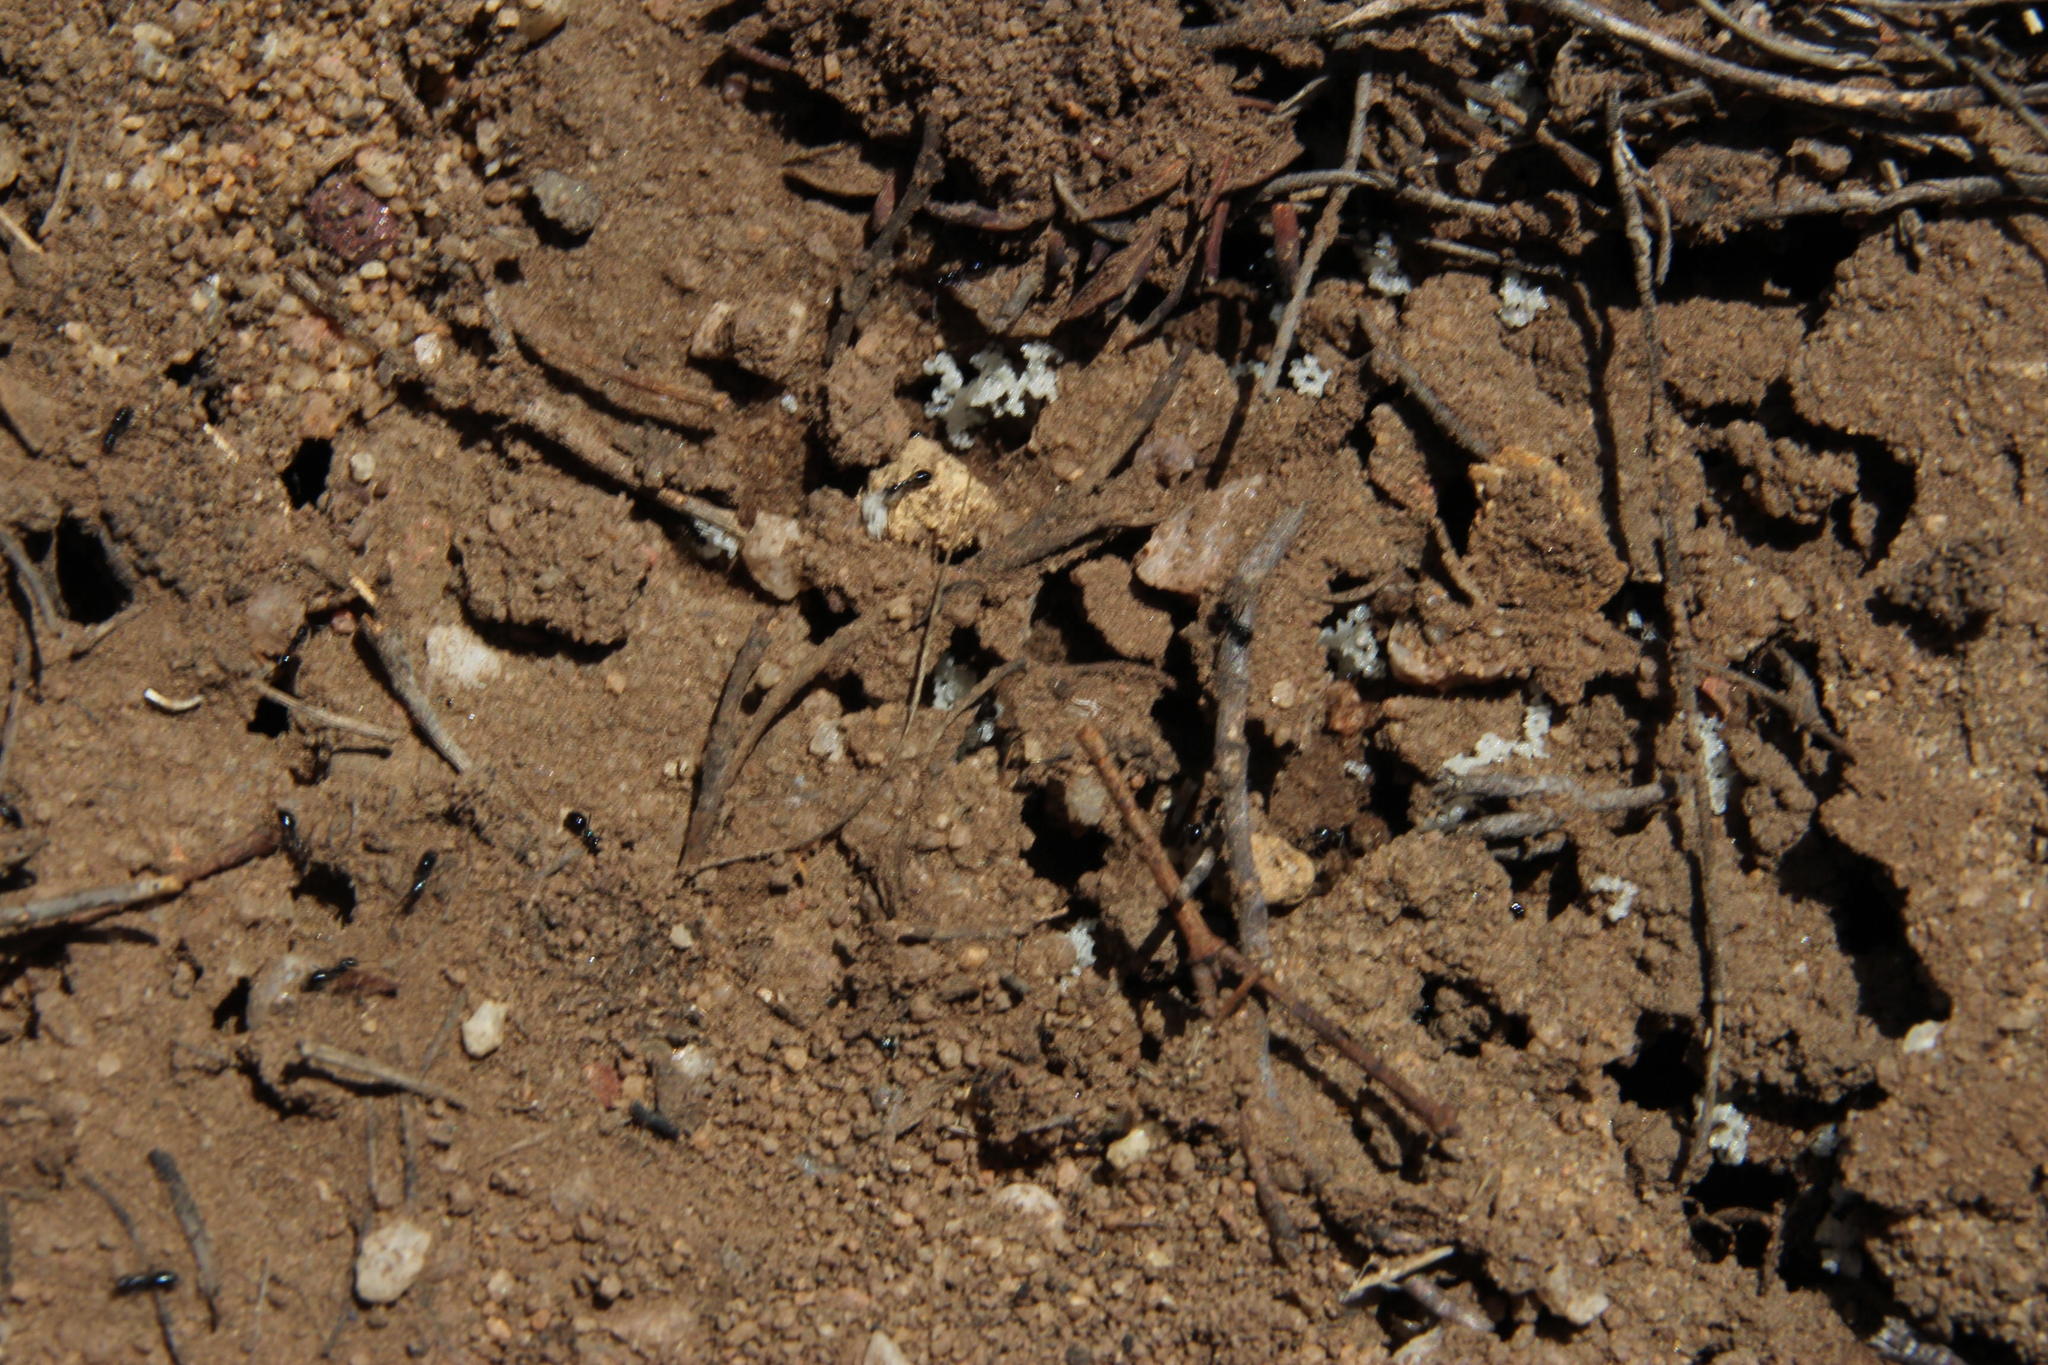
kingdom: Animalia
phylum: Arthropoda
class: Insecta
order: Hymenoptera
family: Formicidae
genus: Lepisiota
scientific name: Lepisiota capensis
